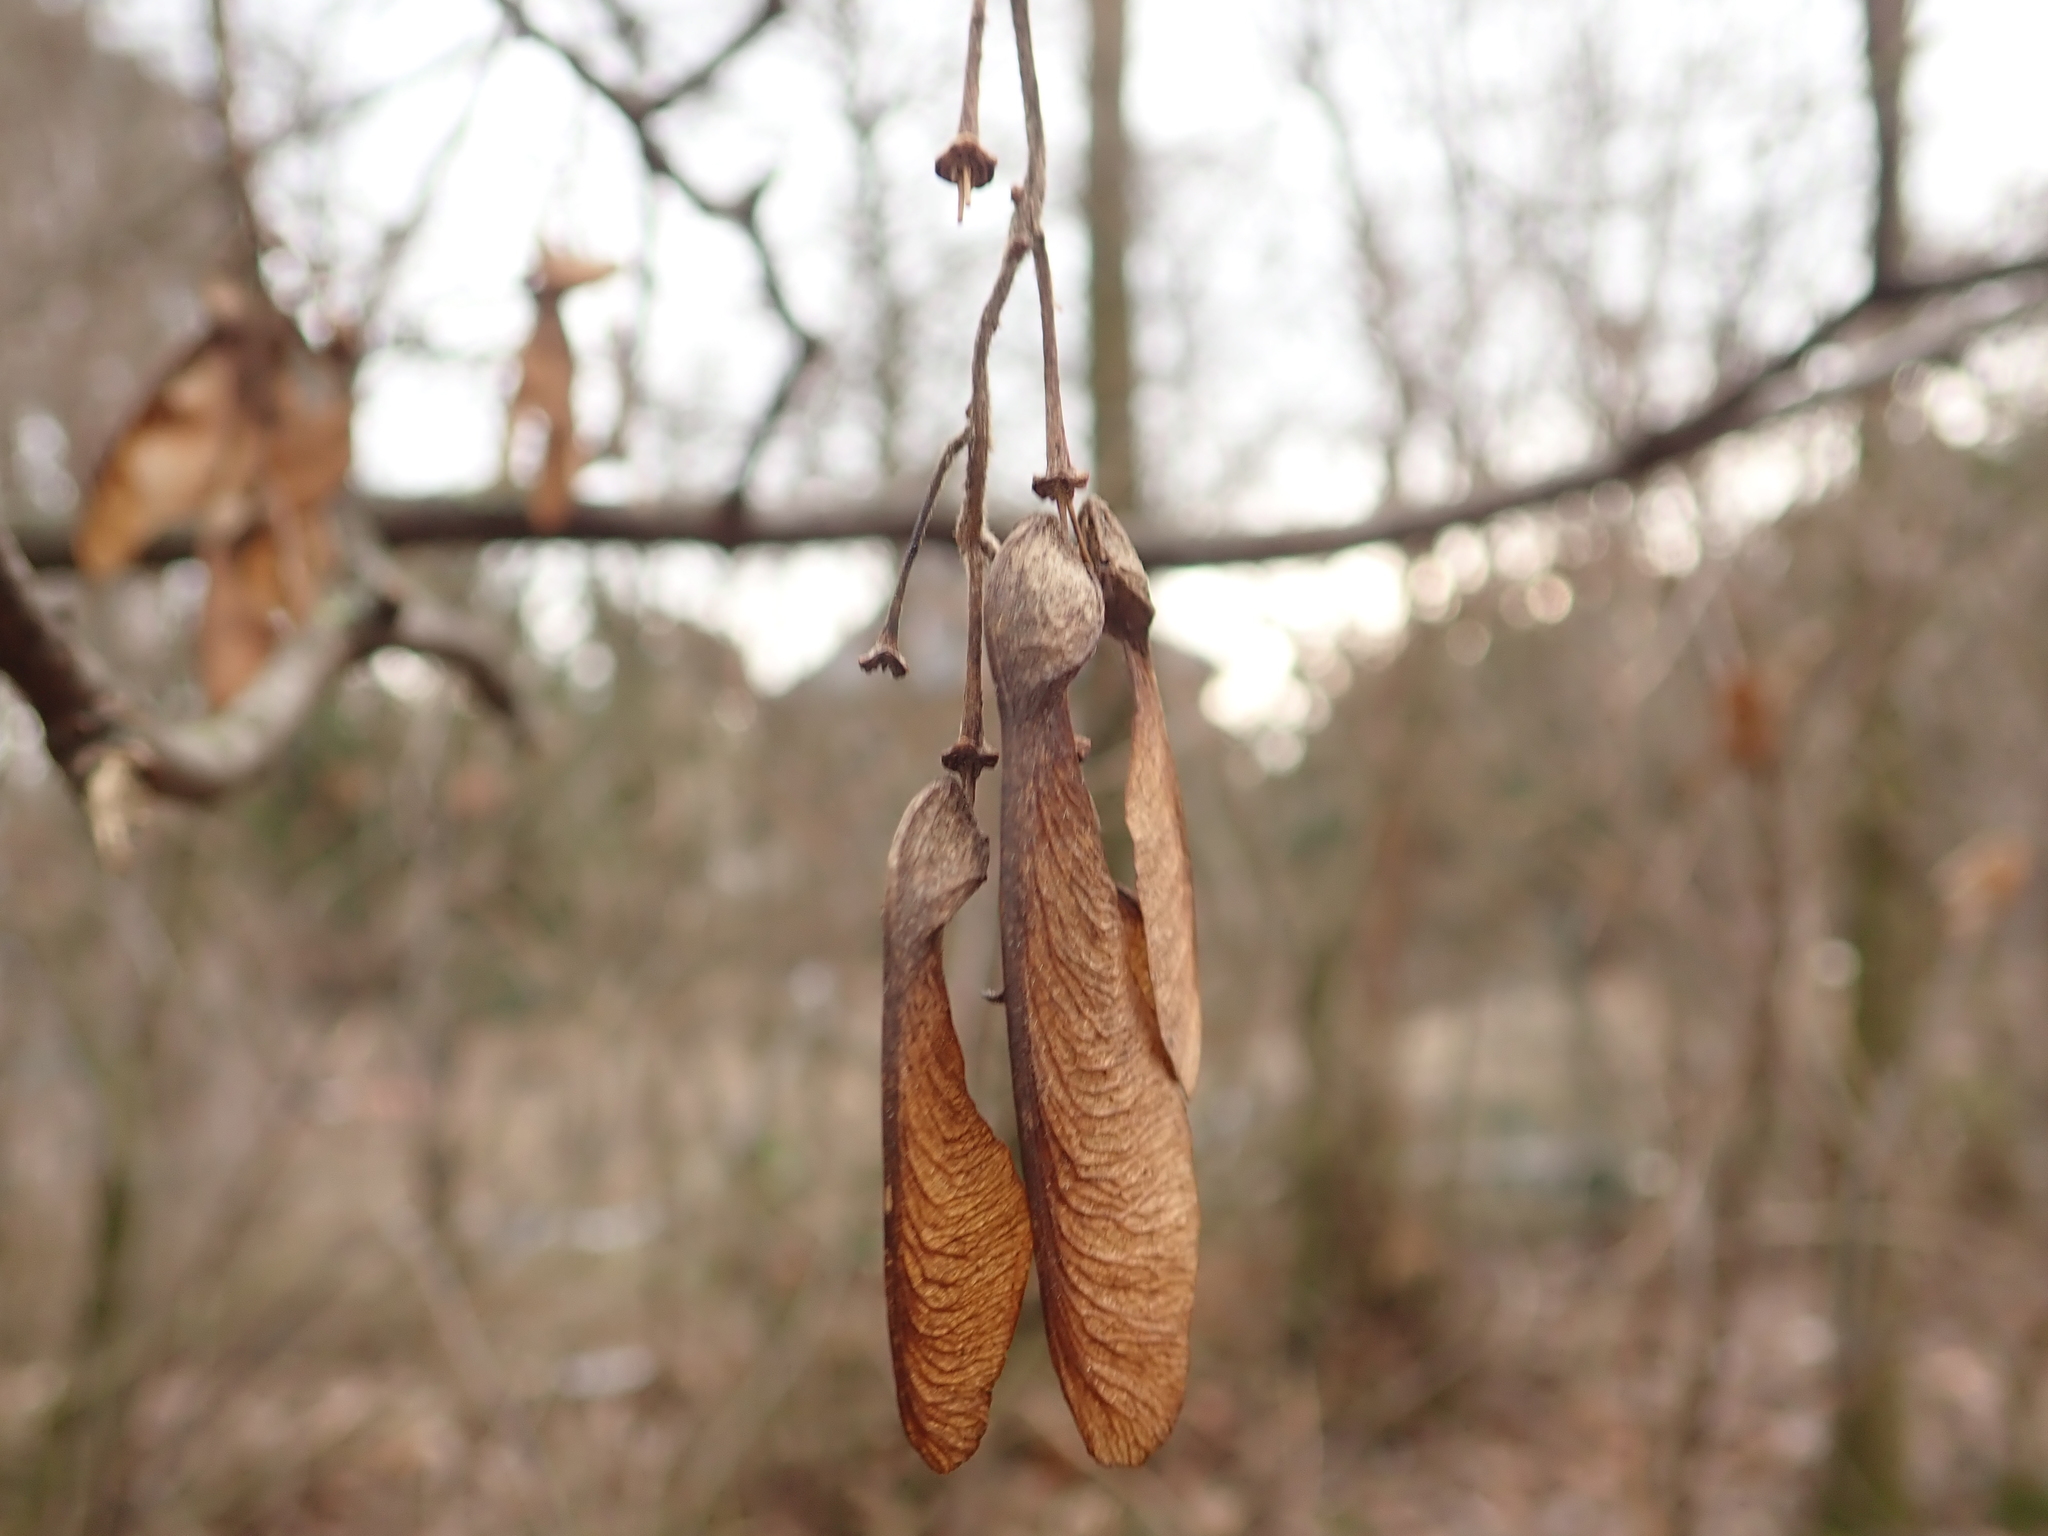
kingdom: Plantae
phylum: Tracheophyta
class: Magnoliopsida
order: Sapindales
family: Sapindaceae
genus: Acer
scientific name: Acer negundo
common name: Ashleaf maple
